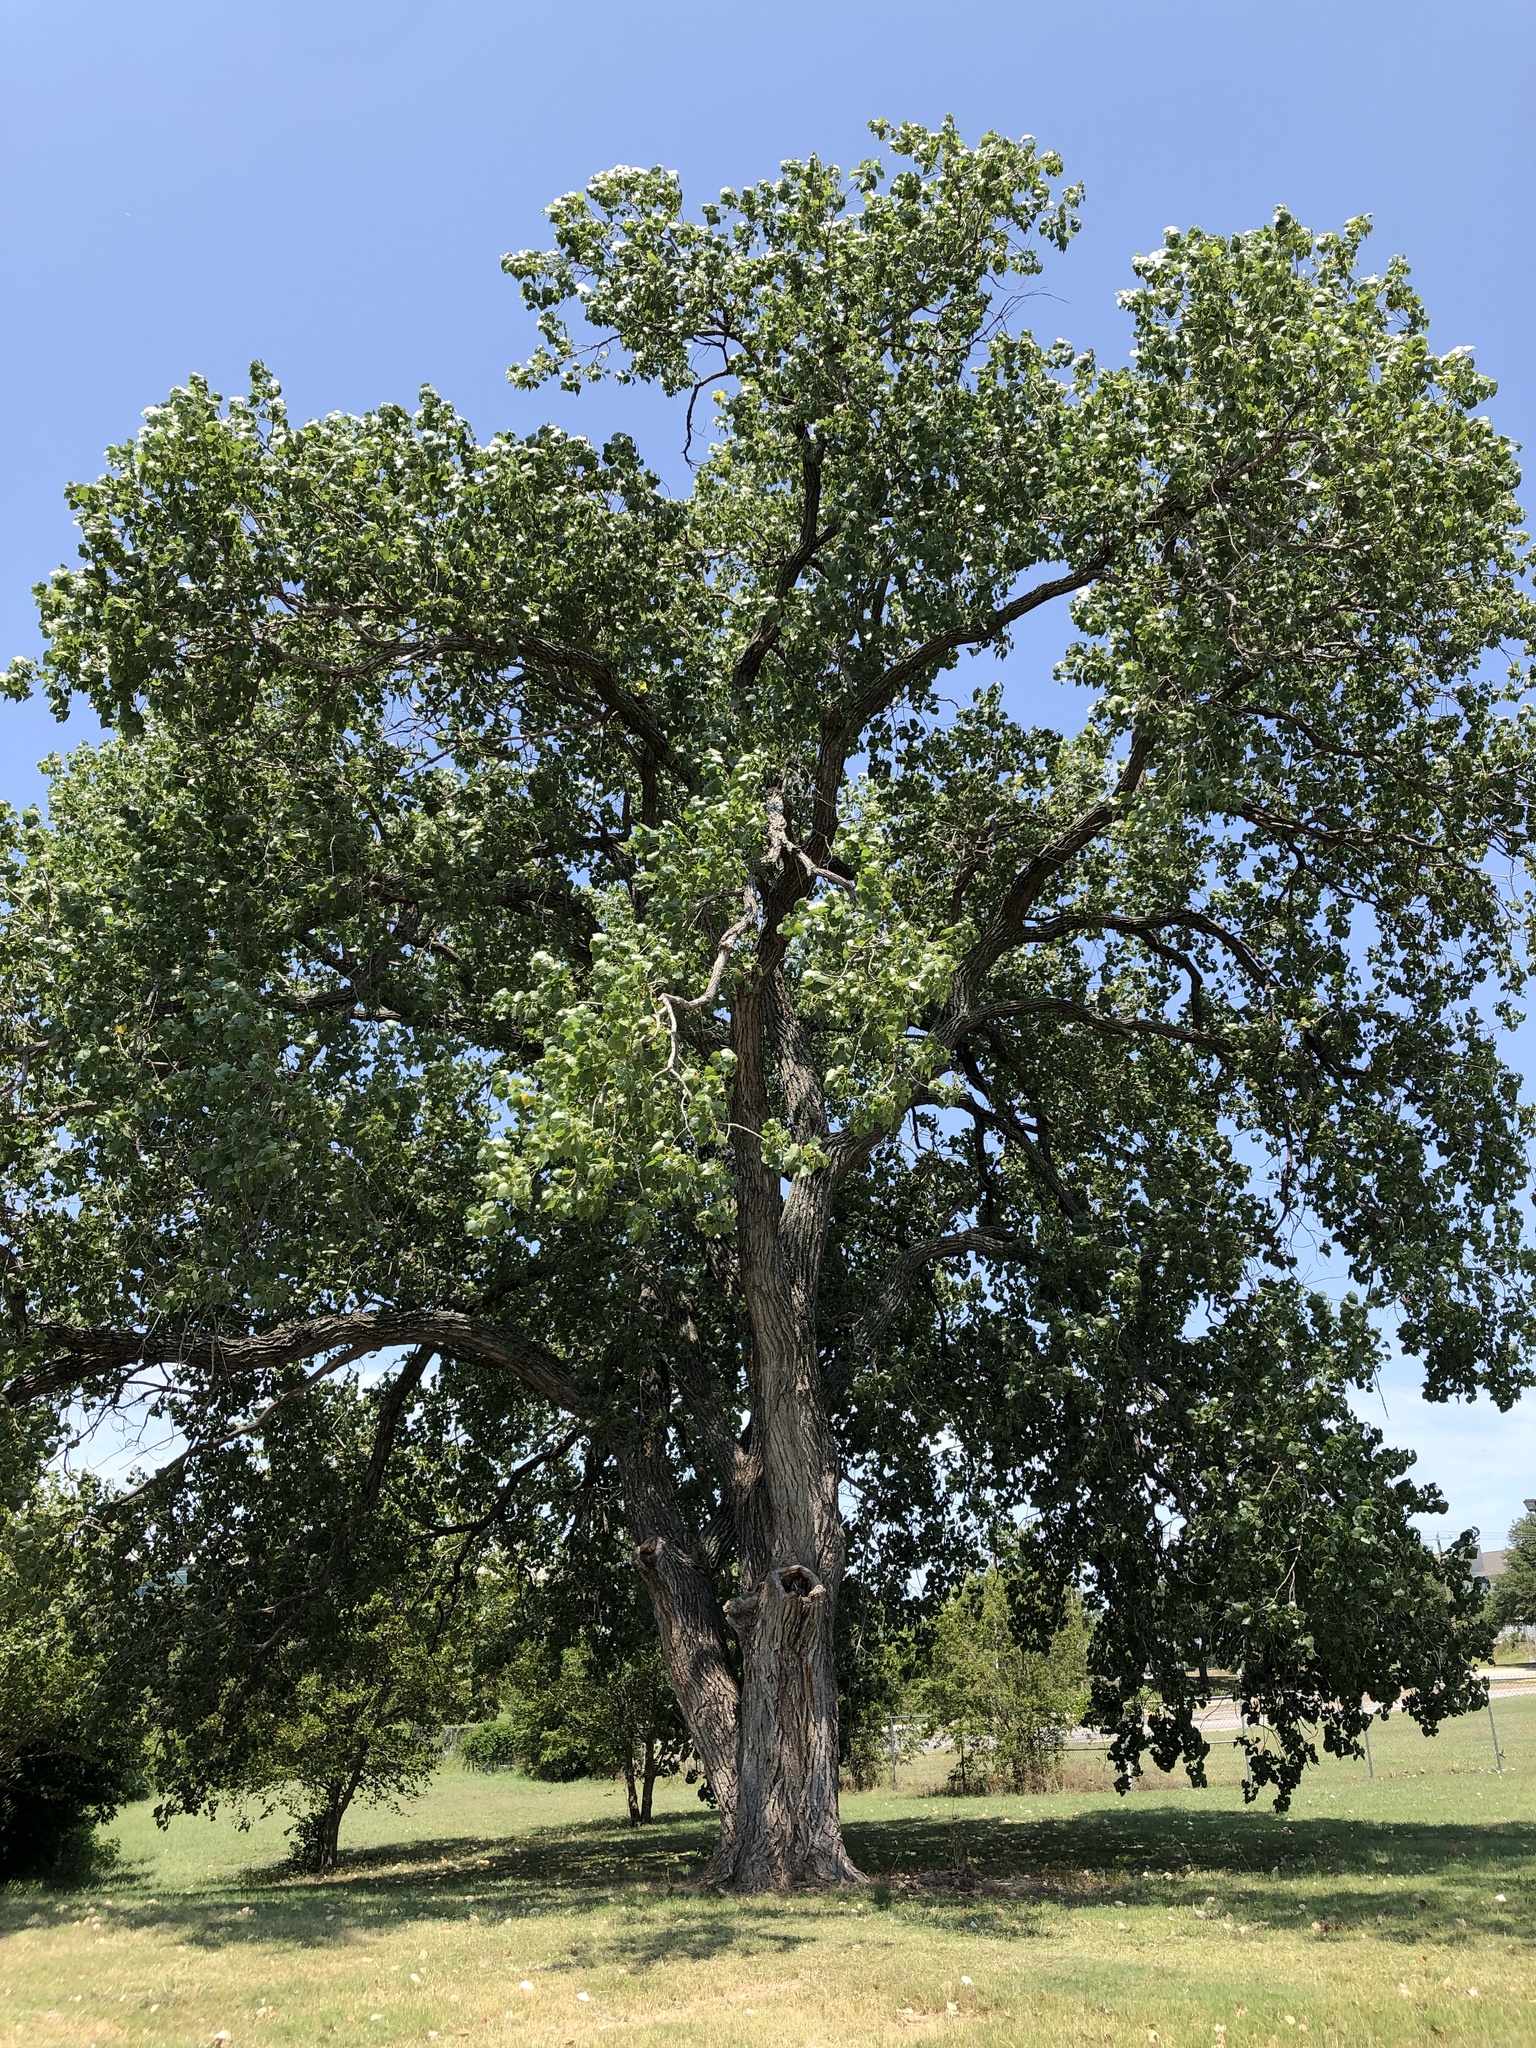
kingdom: Plantae
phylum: Tracheophyta
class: Magnoliopsida
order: Malpighiales
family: Salicaceae
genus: Populus
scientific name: Populus deltoides
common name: Eastern cottonwood
